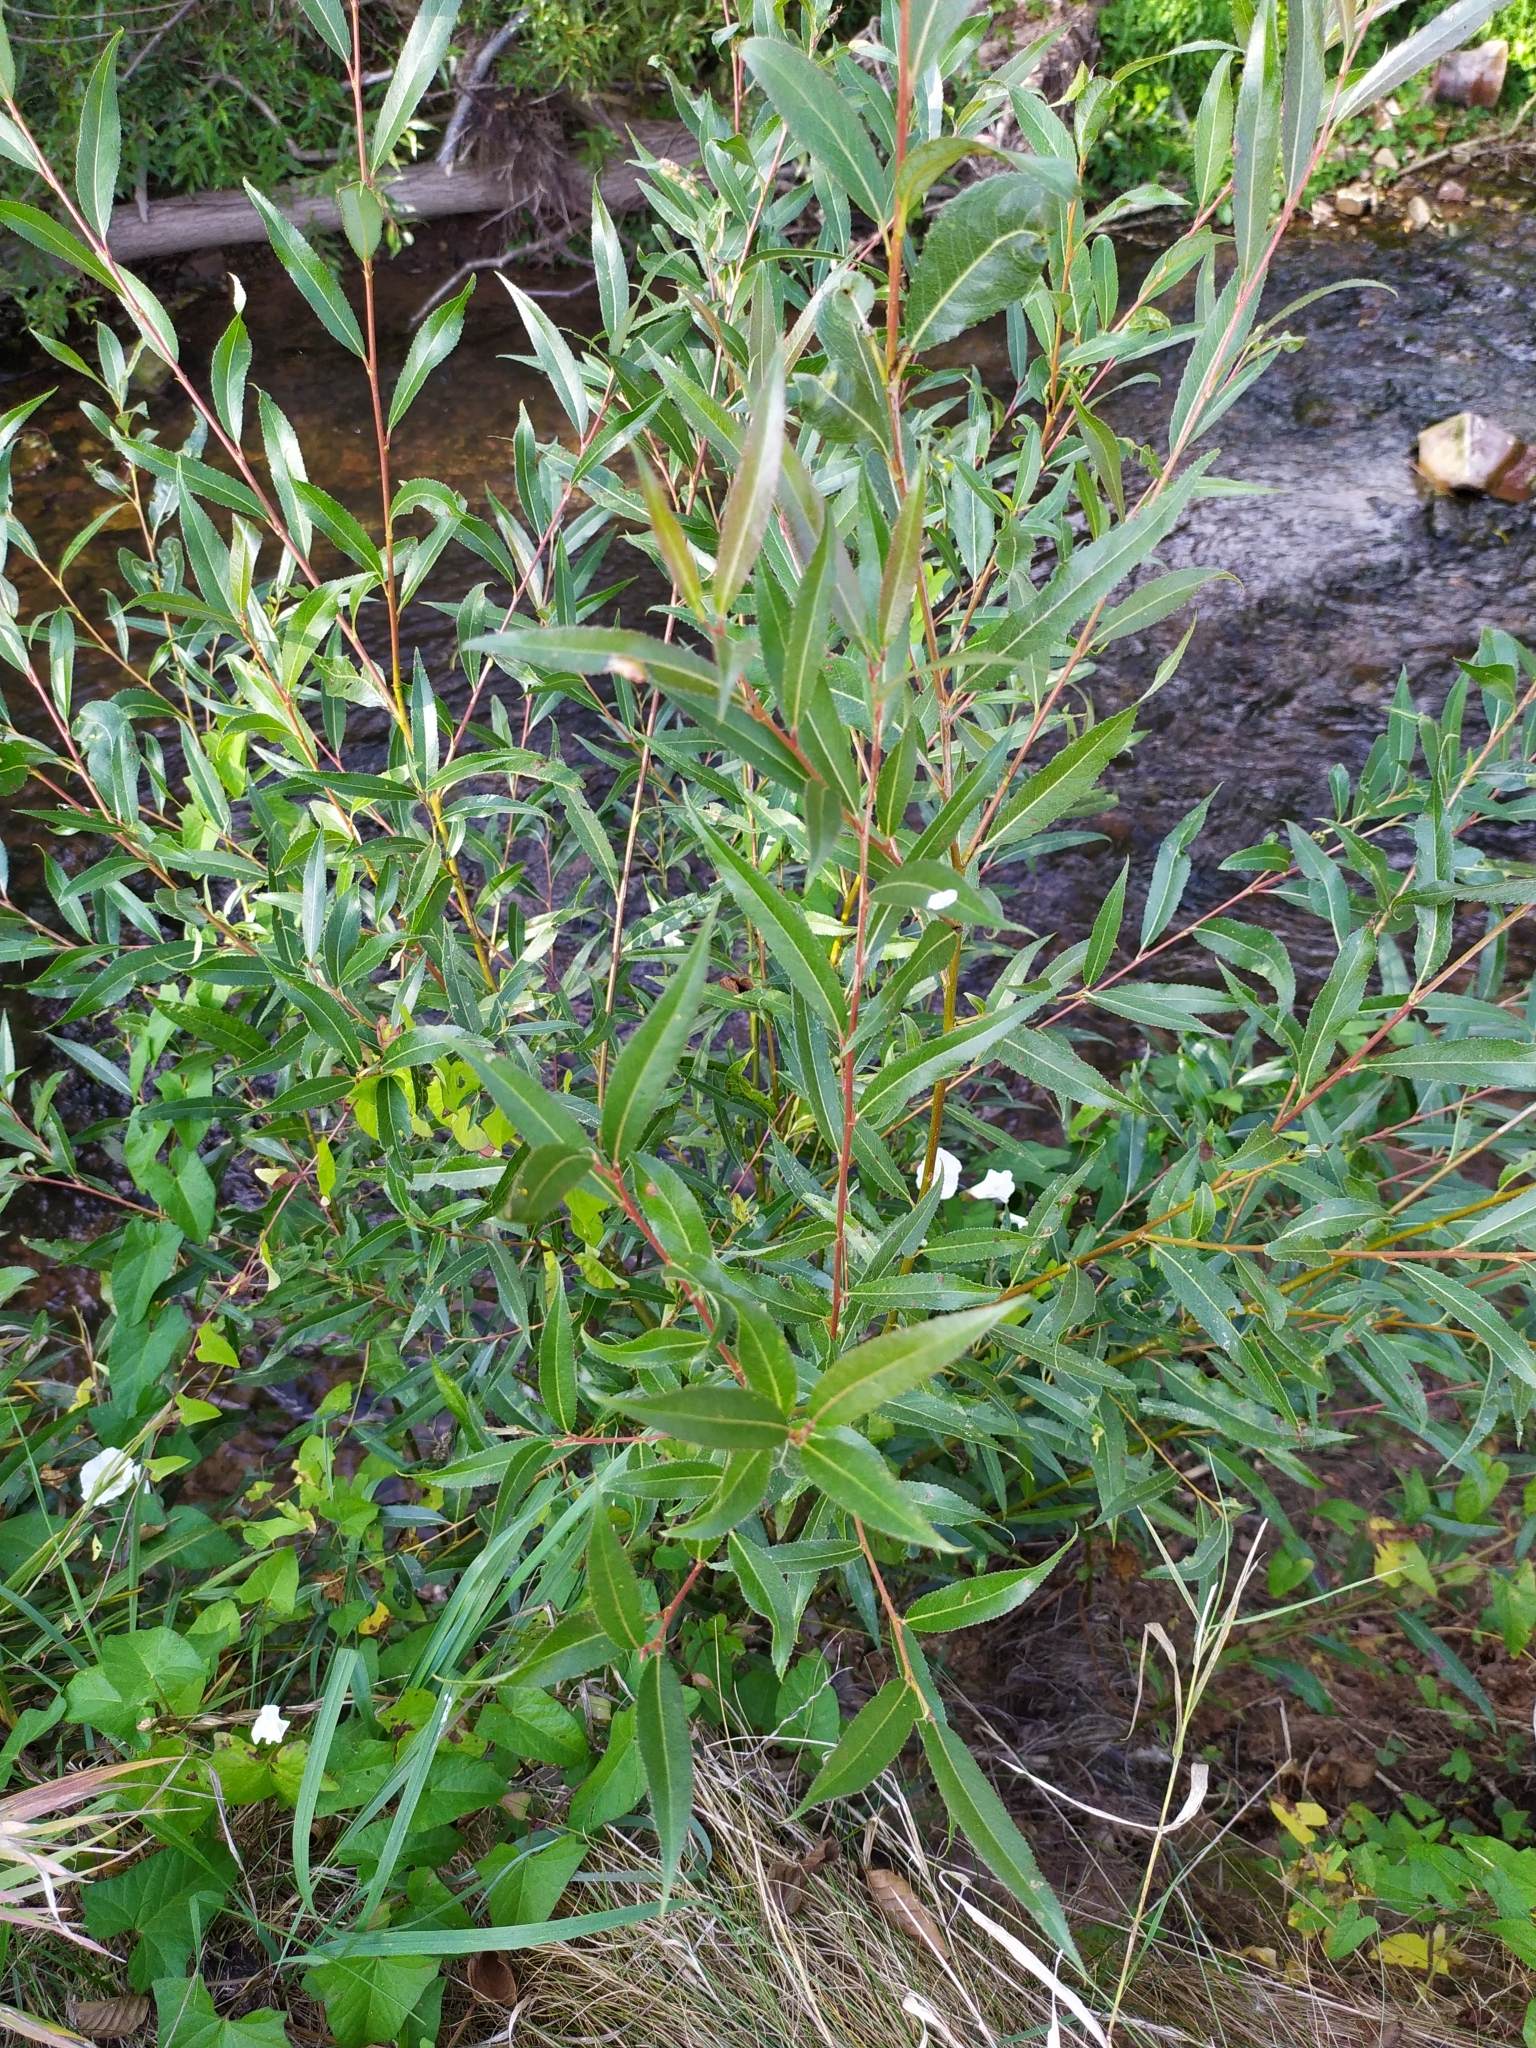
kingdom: Plantae
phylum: Tracheophyta
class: Magnoliopsida
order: Malpighiales
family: Salicaceae
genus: Salix
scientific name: Salix alba
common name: White willow
